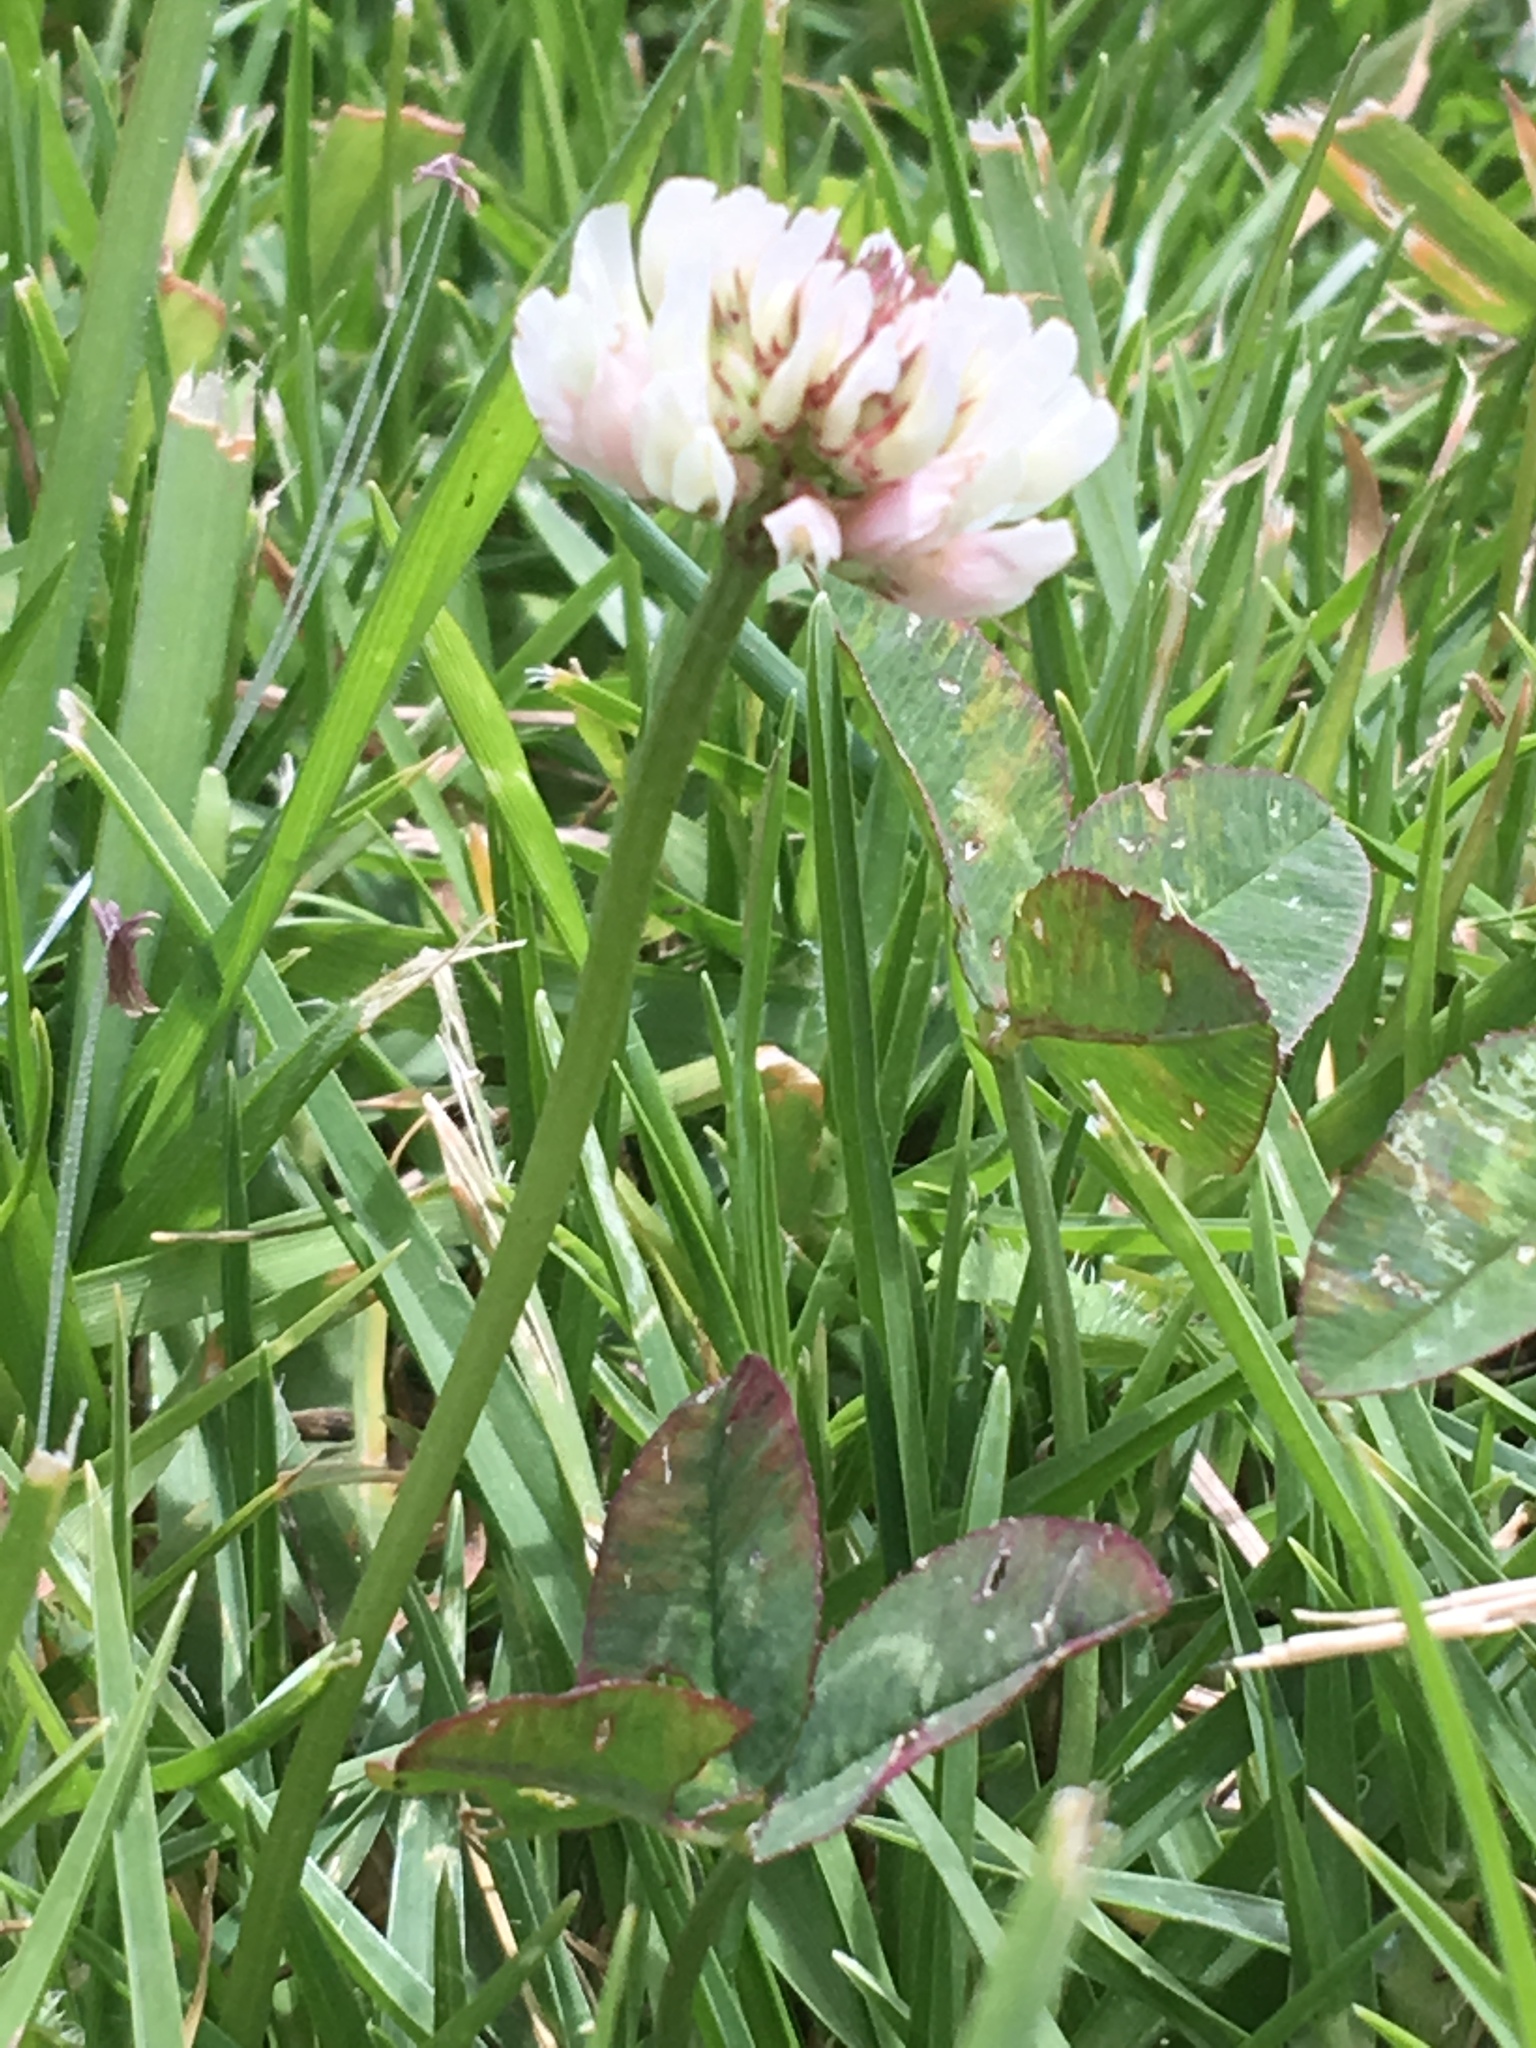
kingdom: Plantae
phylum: Tracheophyta
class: Magnoliopsida
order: Fabales
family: Fabaceae
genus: Trifolium
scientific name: Trifolium repens
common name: White clover
